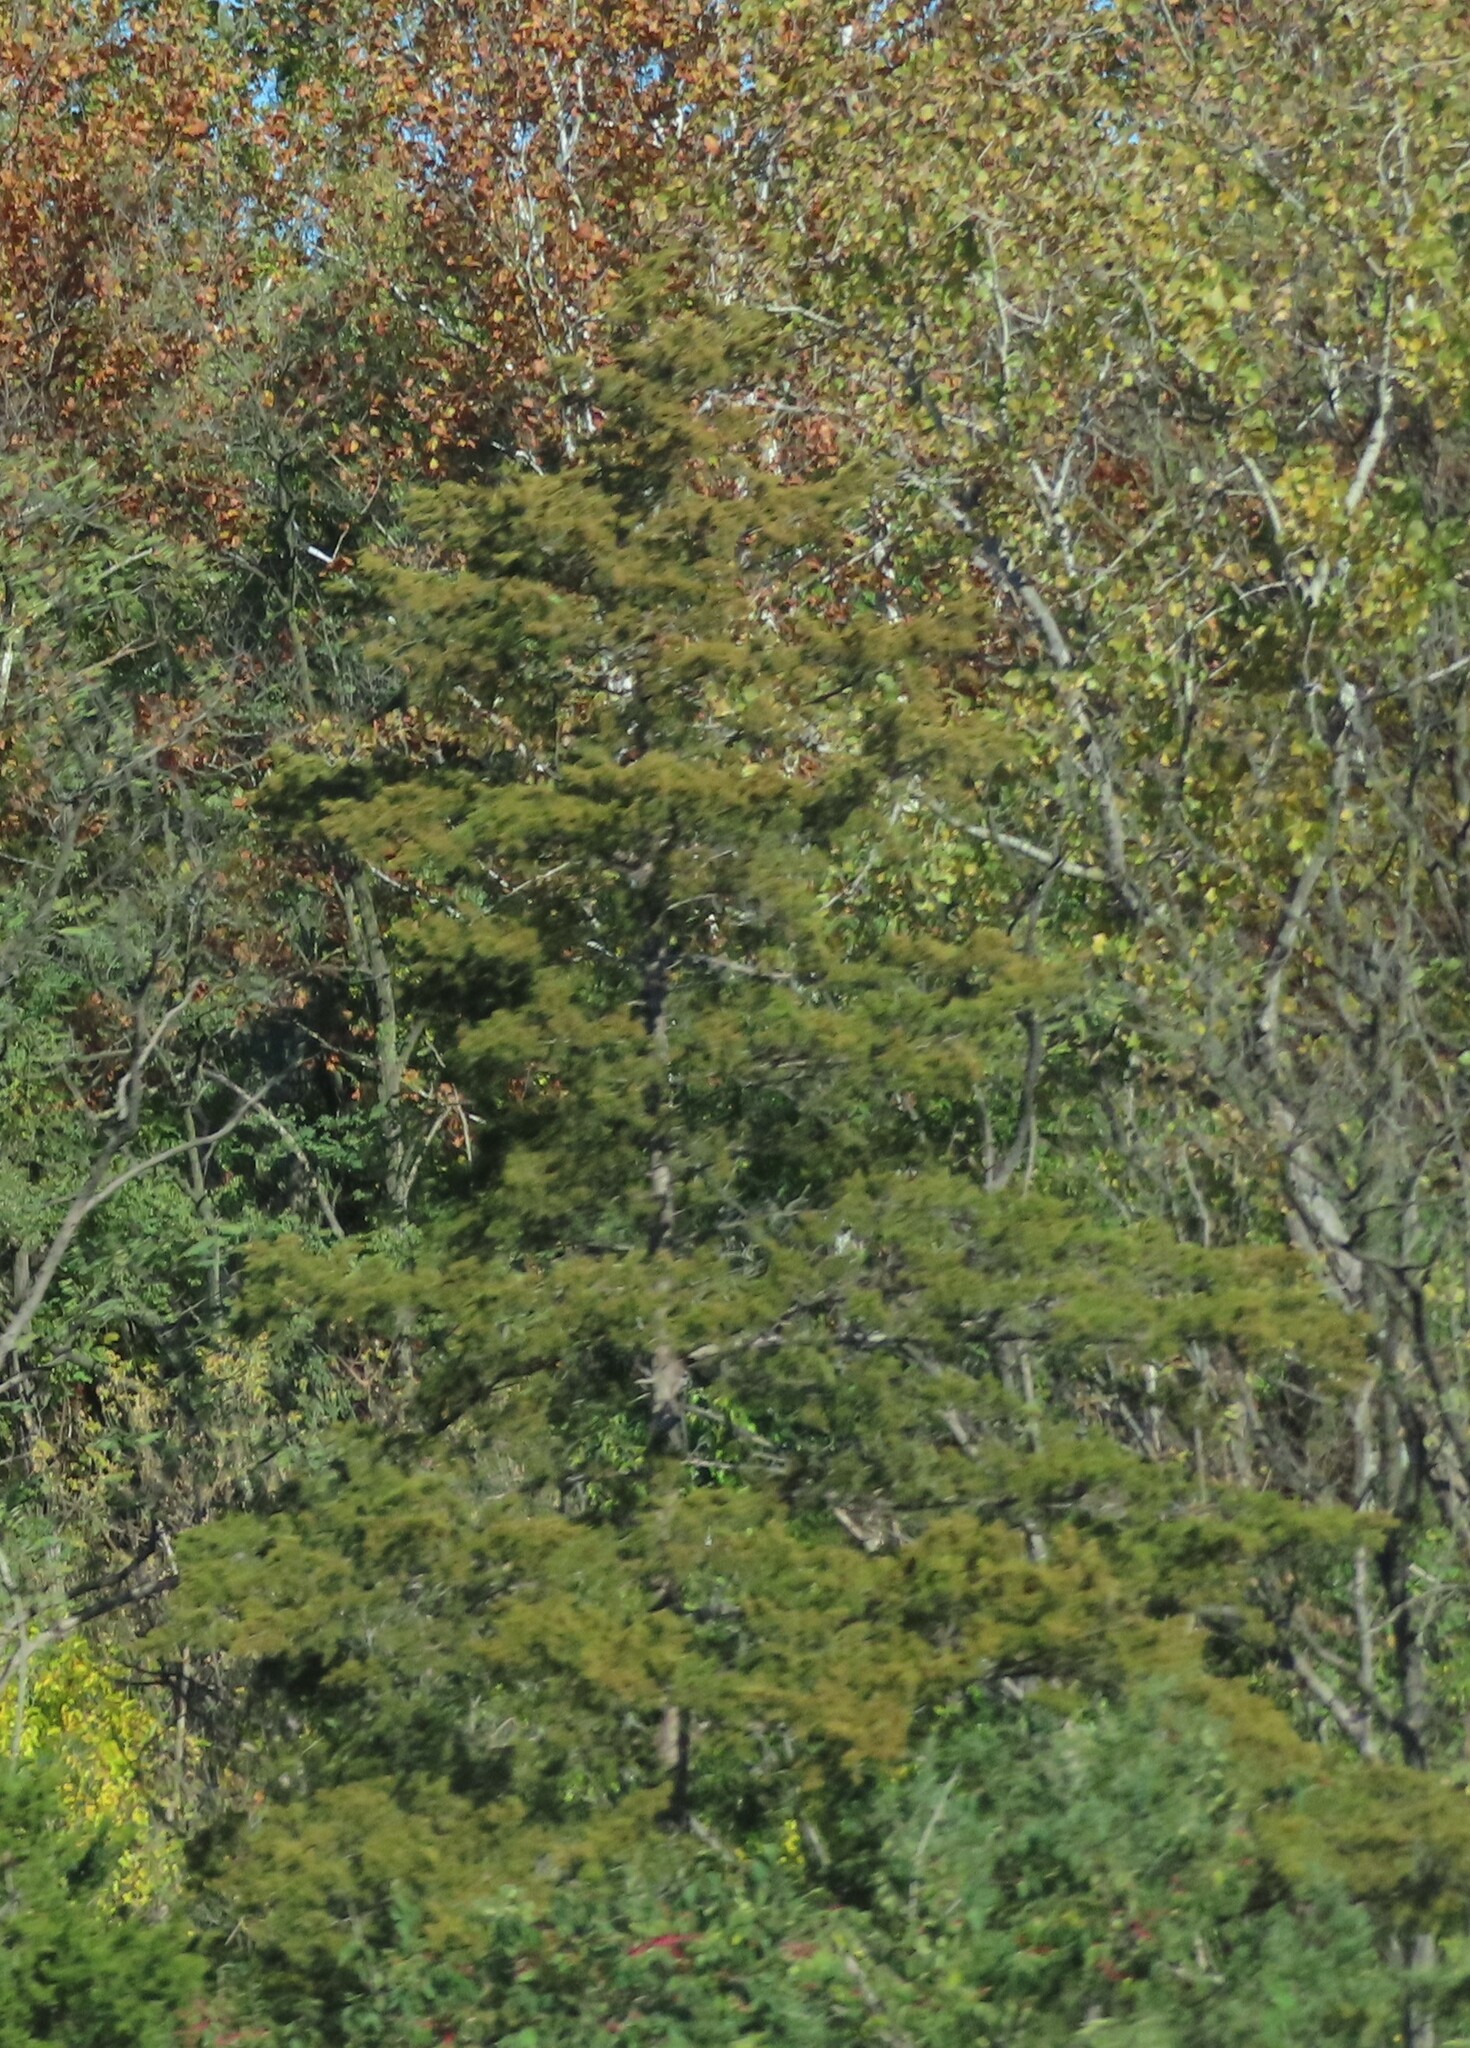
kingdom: Plantae
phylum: Tracheophyta
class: Pinopsida
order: Pinales
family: Cupressaceae
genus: Juniperus
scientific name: Juniperus virginiana
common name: Red juniper
